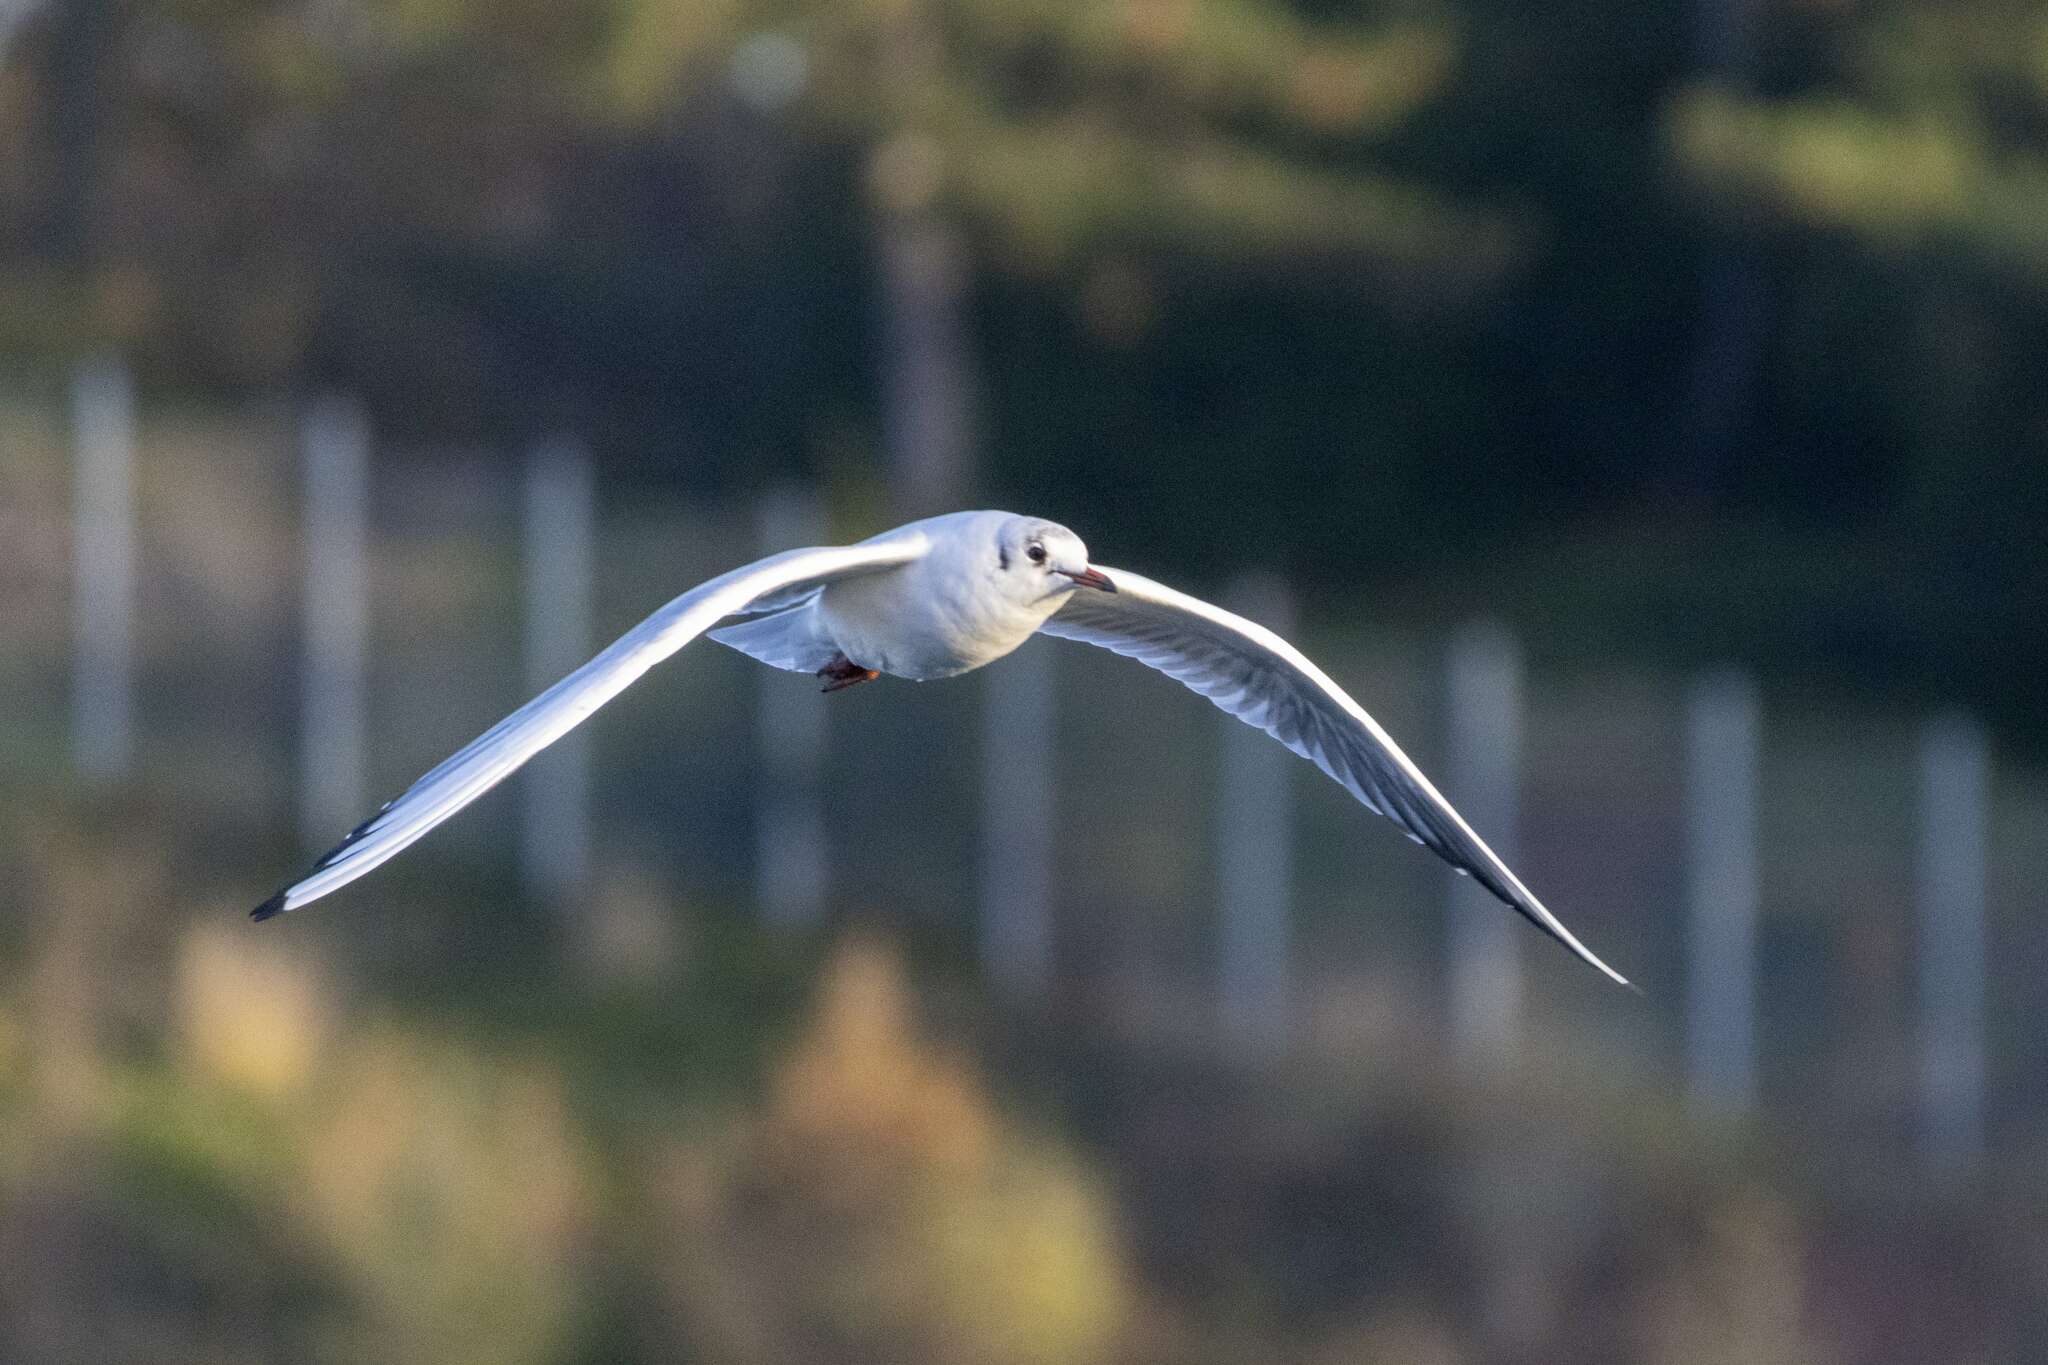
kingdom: Animalia
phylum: Chordata
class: Aves
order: Charadriiformes
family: Laridae
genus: Chroicocephalus
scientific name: Chroicocephalus ridibundus
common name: Black-headed gull
